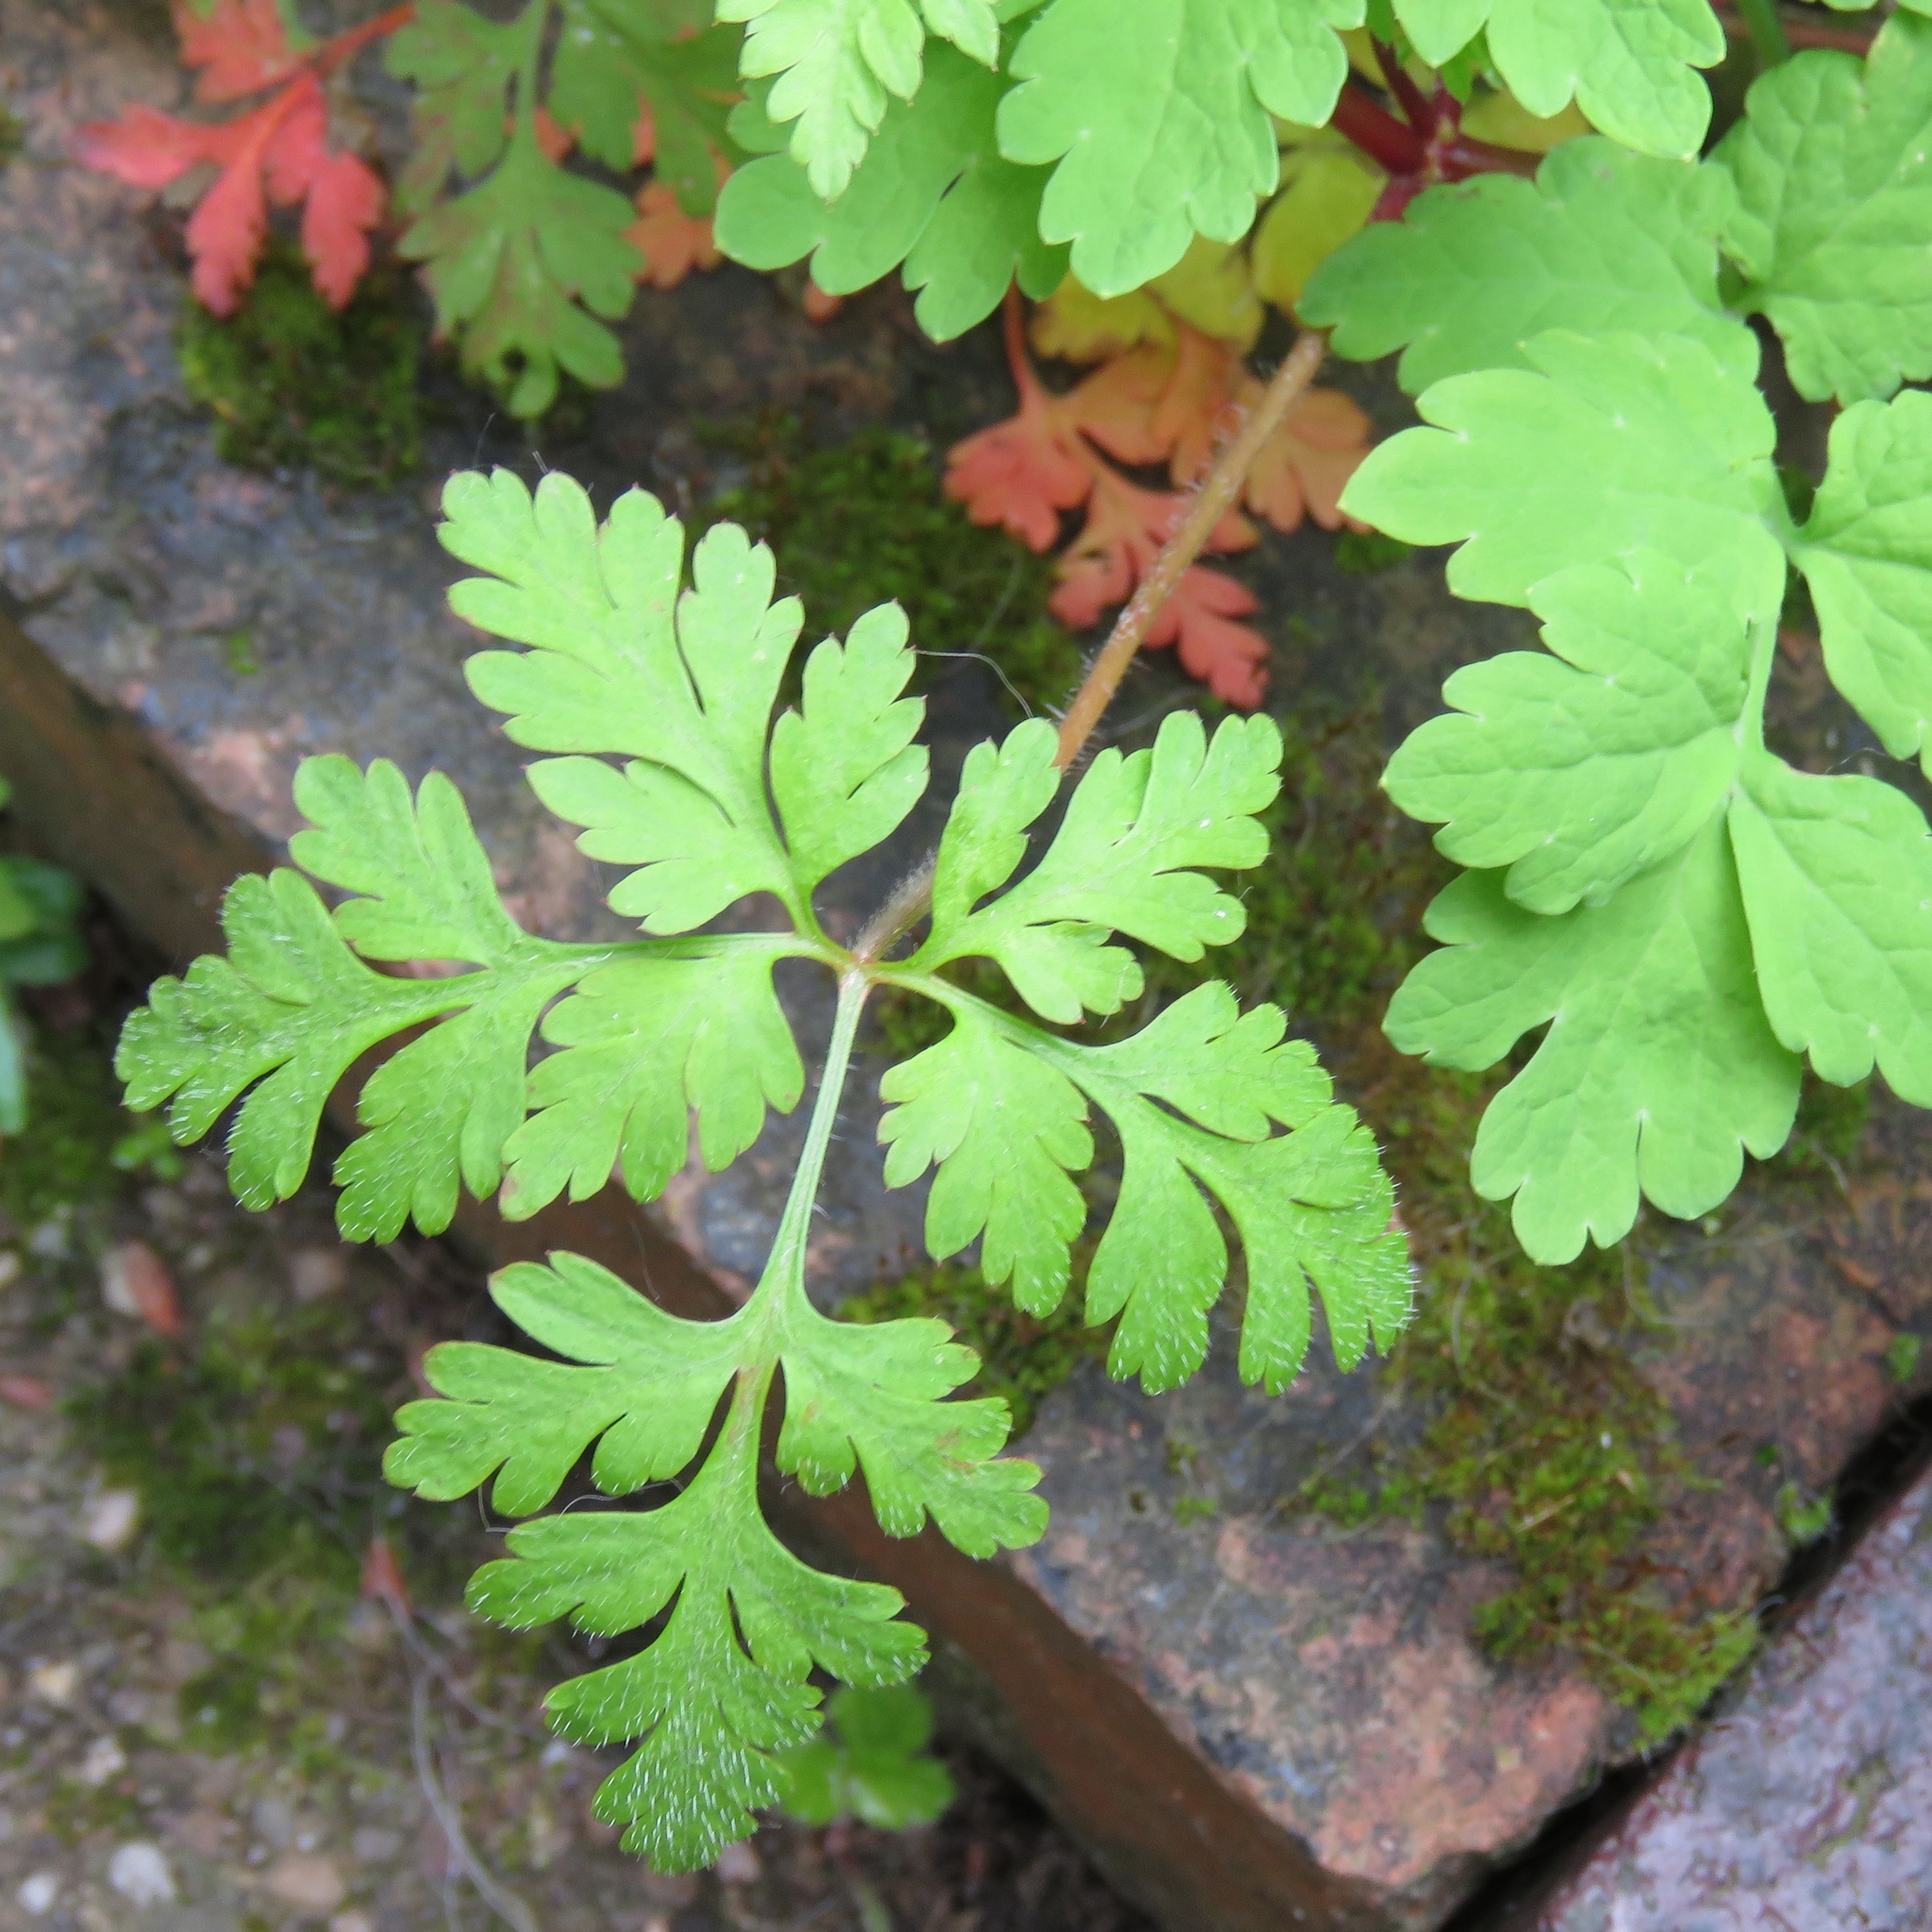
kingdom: Plantae
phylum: Tracheophyta
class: Magnoliopsida
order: Geraniales
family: Geraniaceae
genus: Geranium
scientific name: Geranium robertianum
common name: Herb-robert
